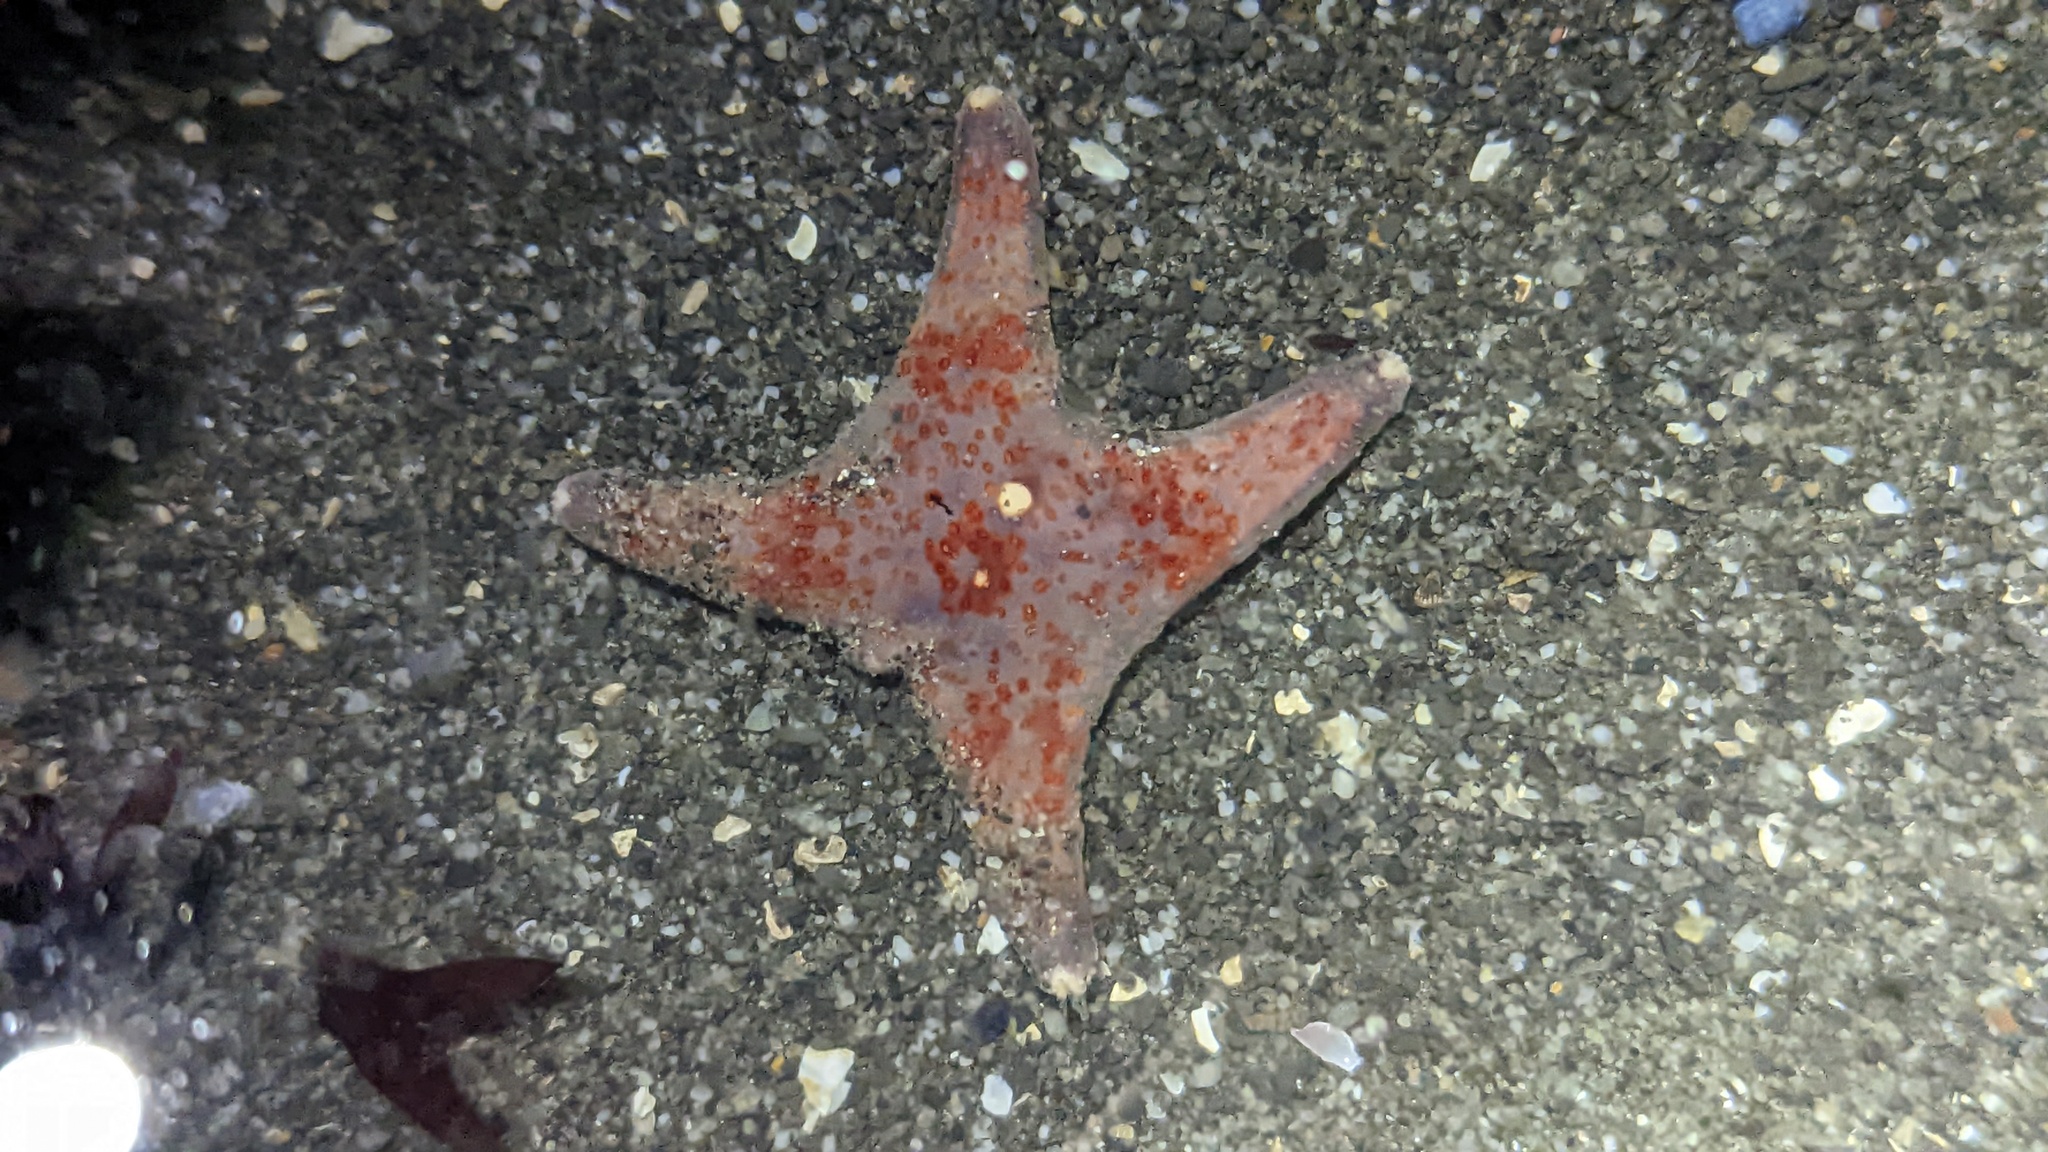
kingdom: Animalia
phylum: Echinodermata
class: Asteroidea
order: Valvatida
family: Asteropseidae
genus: Dermasterias
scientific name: Dermasterias imbricata
